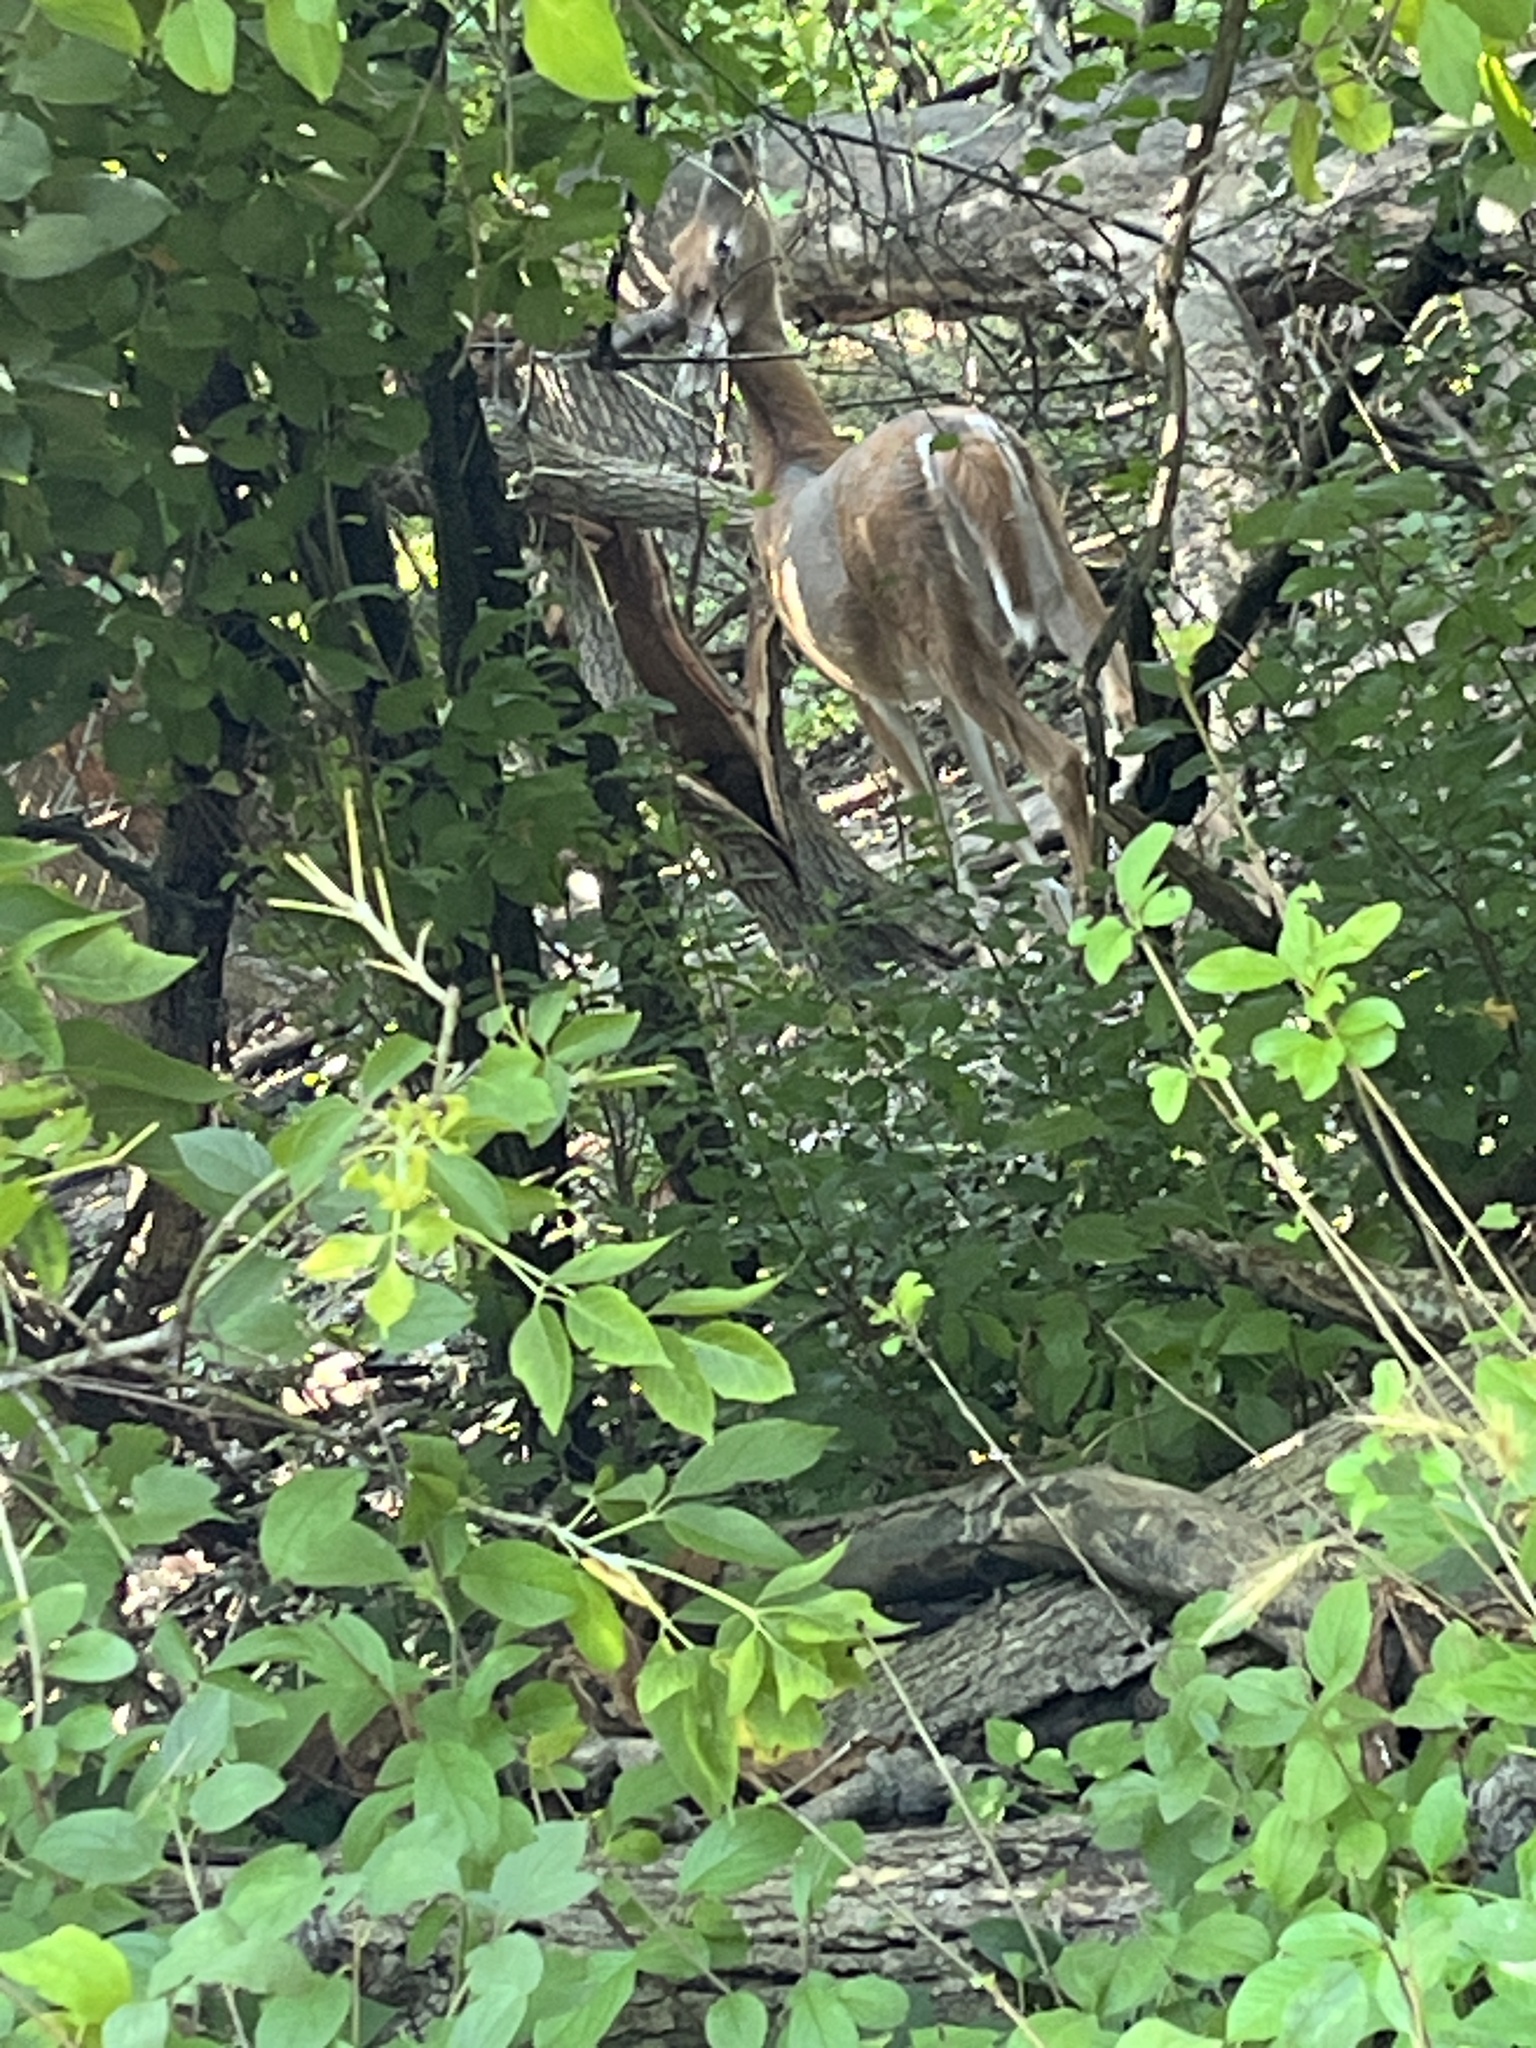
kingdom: Animalia
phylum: Chordata
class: Mammalia
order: Artiodactyla
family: Cervidae
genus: Odocoileus
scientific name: Odocoileus virginianus
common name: White-tailed deer
